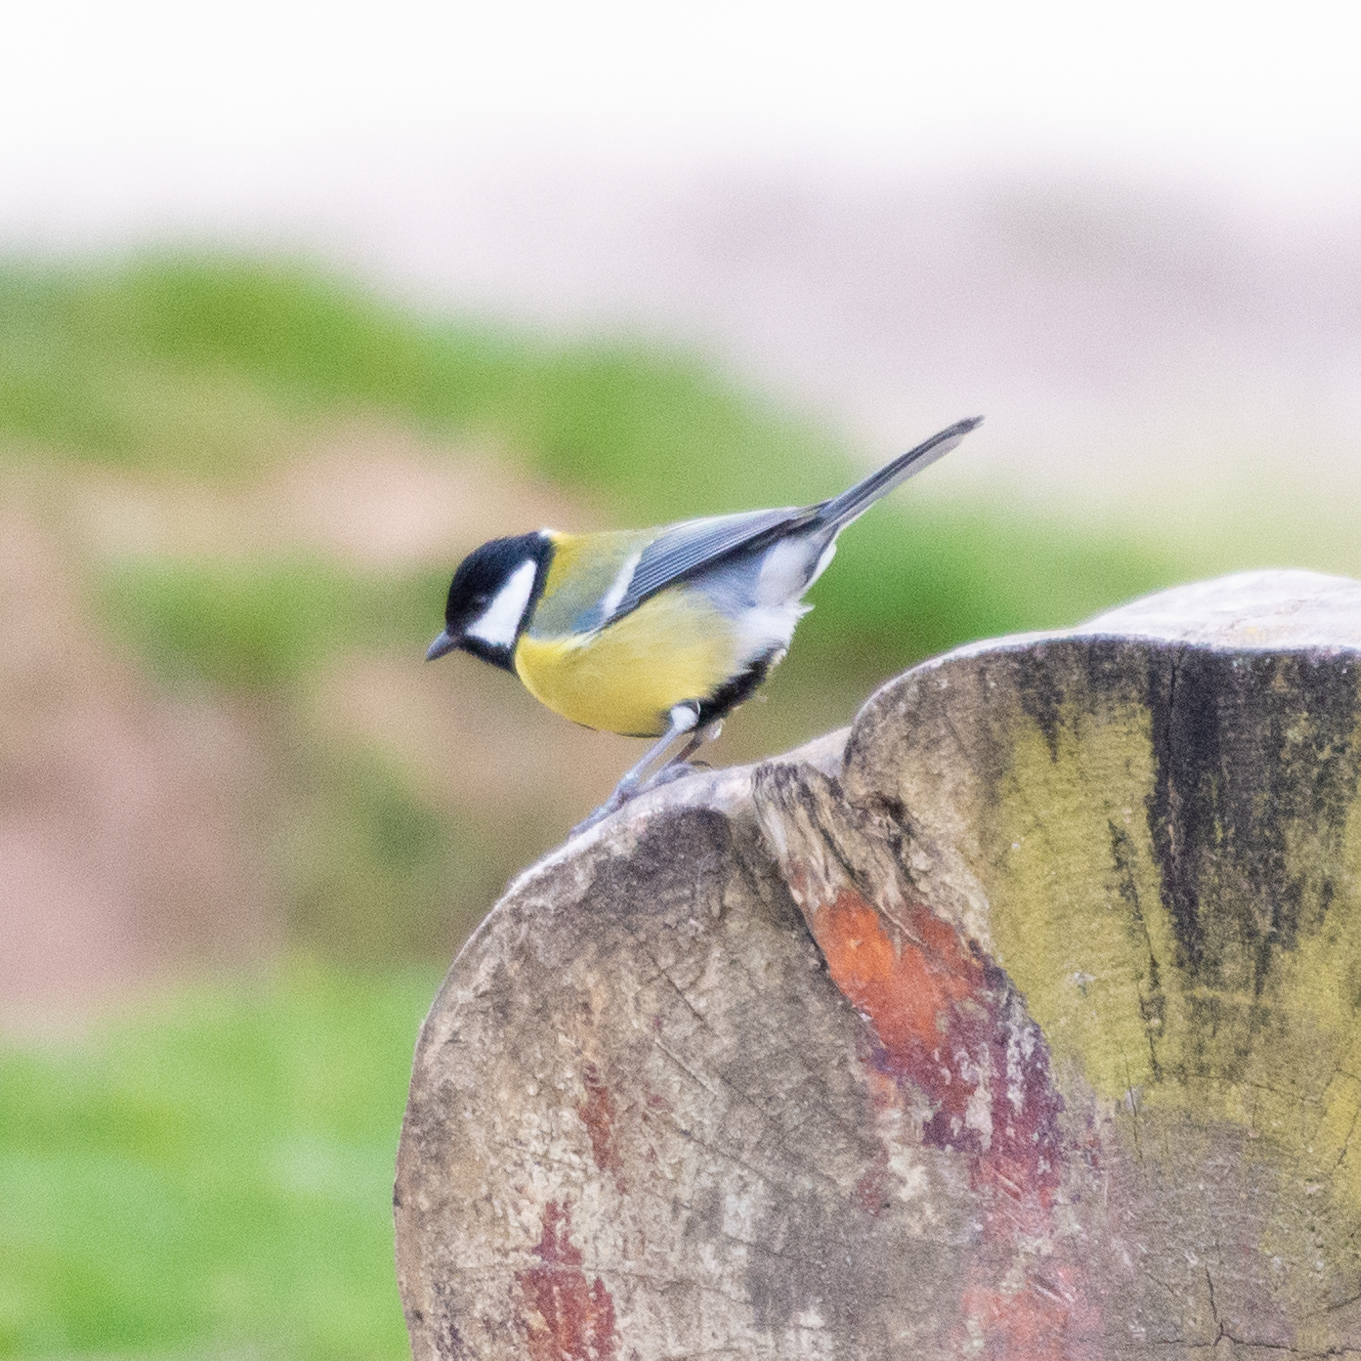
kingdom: Animalia
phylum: Chordata
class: Aves
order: Passeriformes
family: Paridae
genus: Parus
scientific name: Parus major
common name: Great tit
